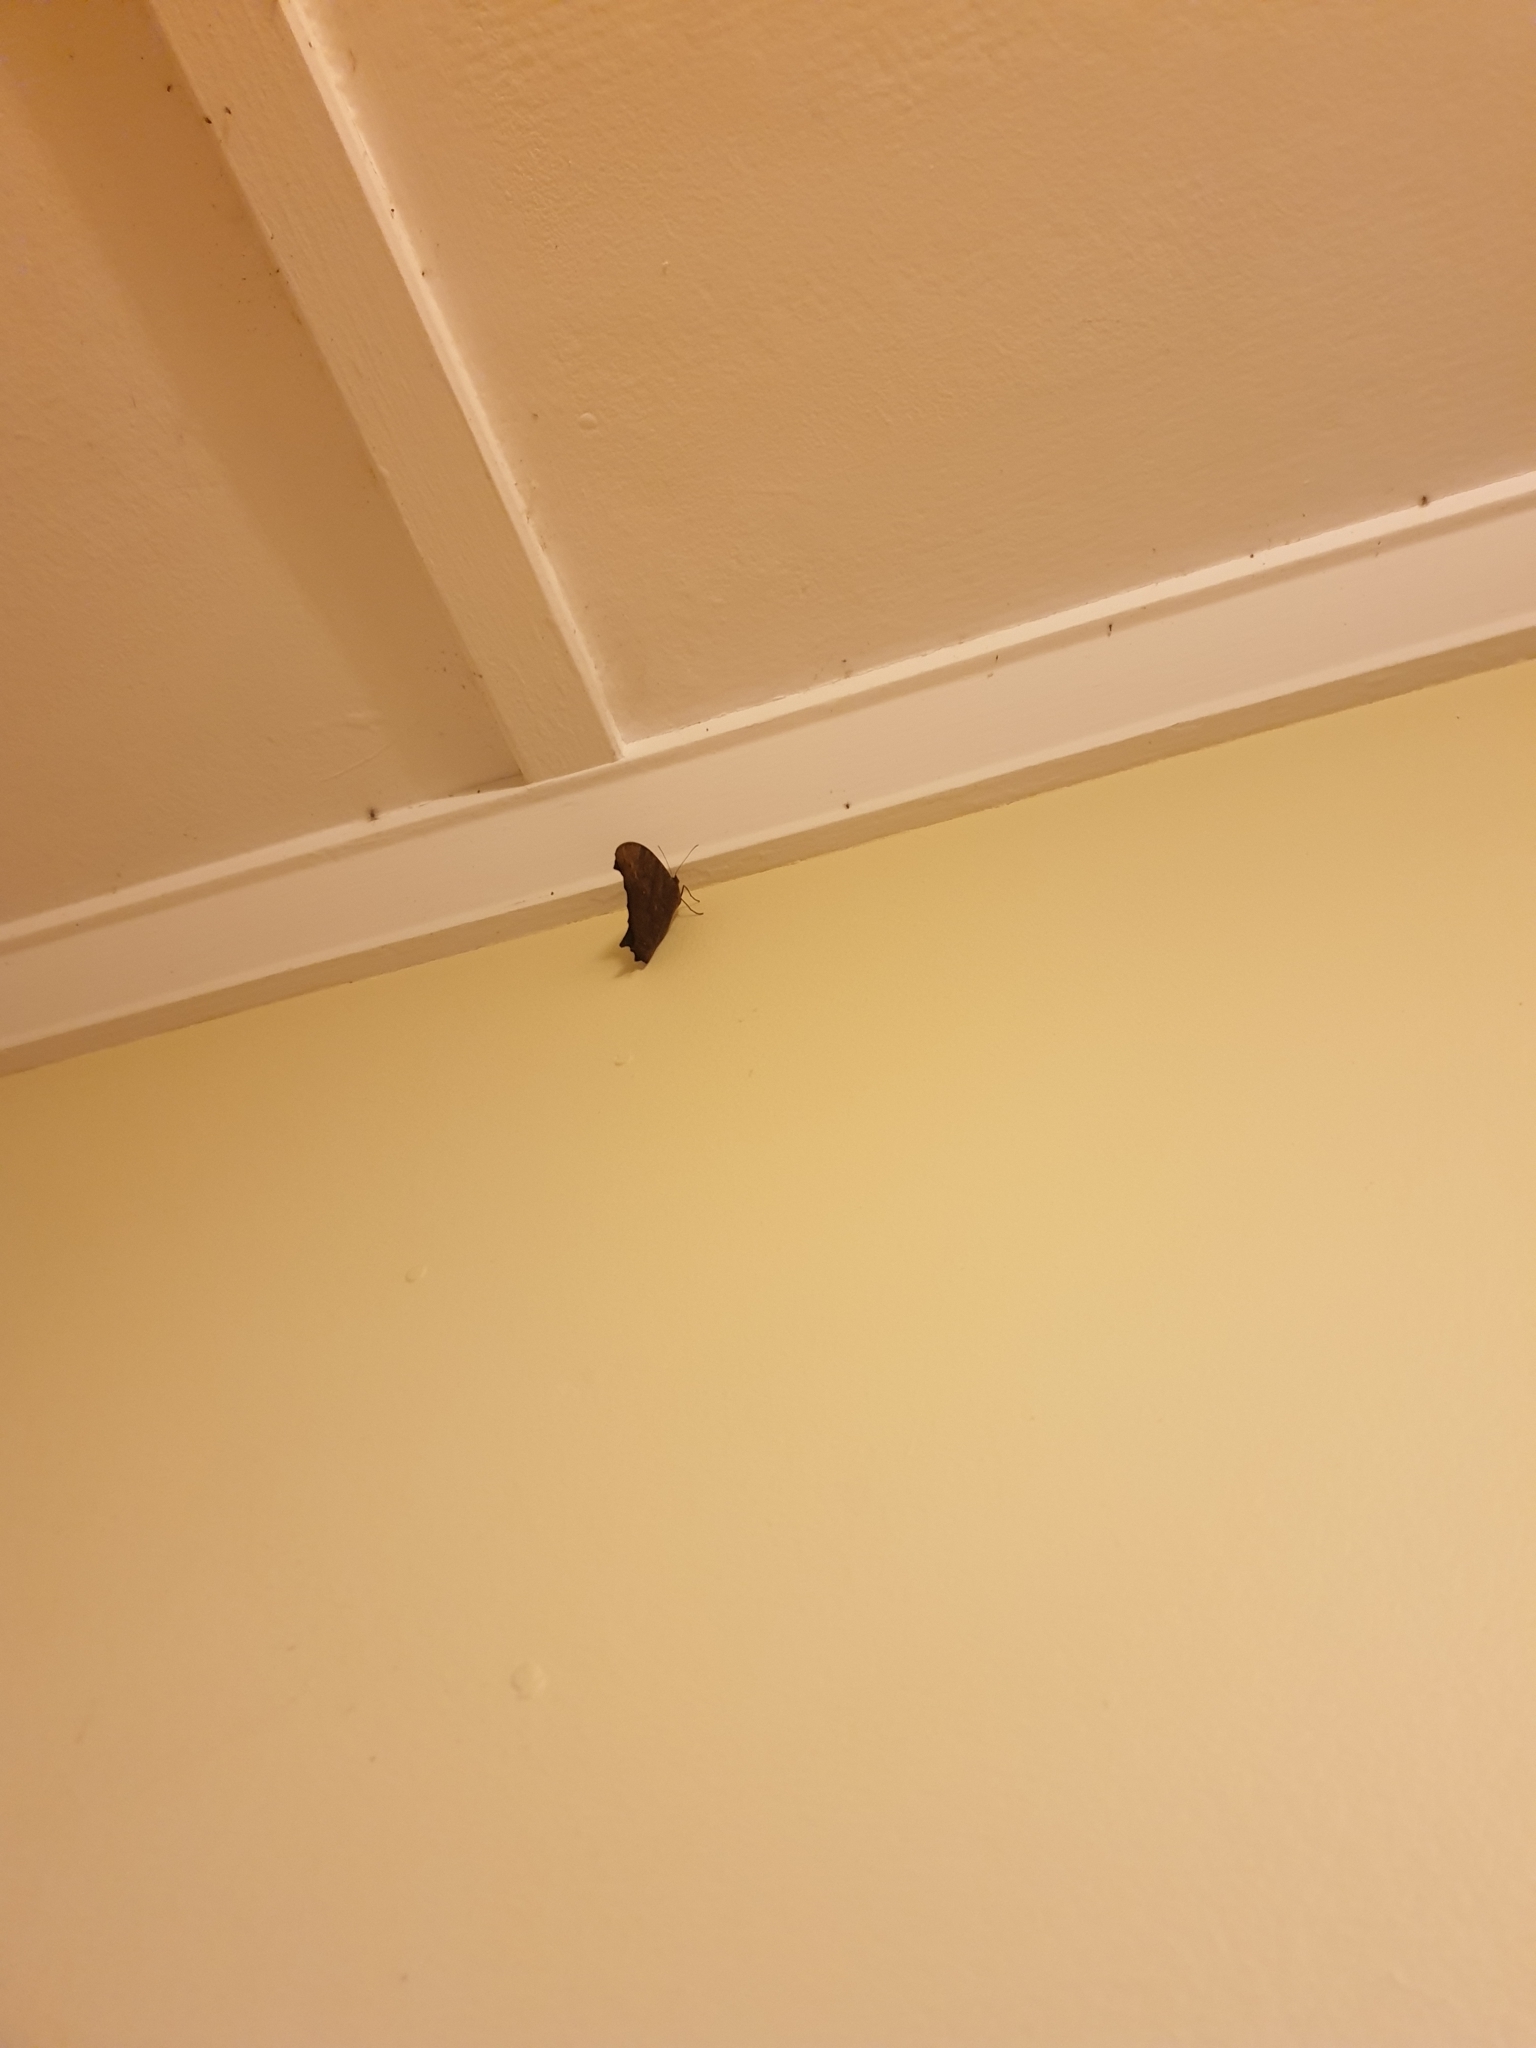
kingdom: Animalia
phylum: Arthropoda
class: Insecta
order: Lepidoptera
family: Nymphalidae
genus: Melanitis
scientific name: Melanitis leda
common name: Twilight brown
